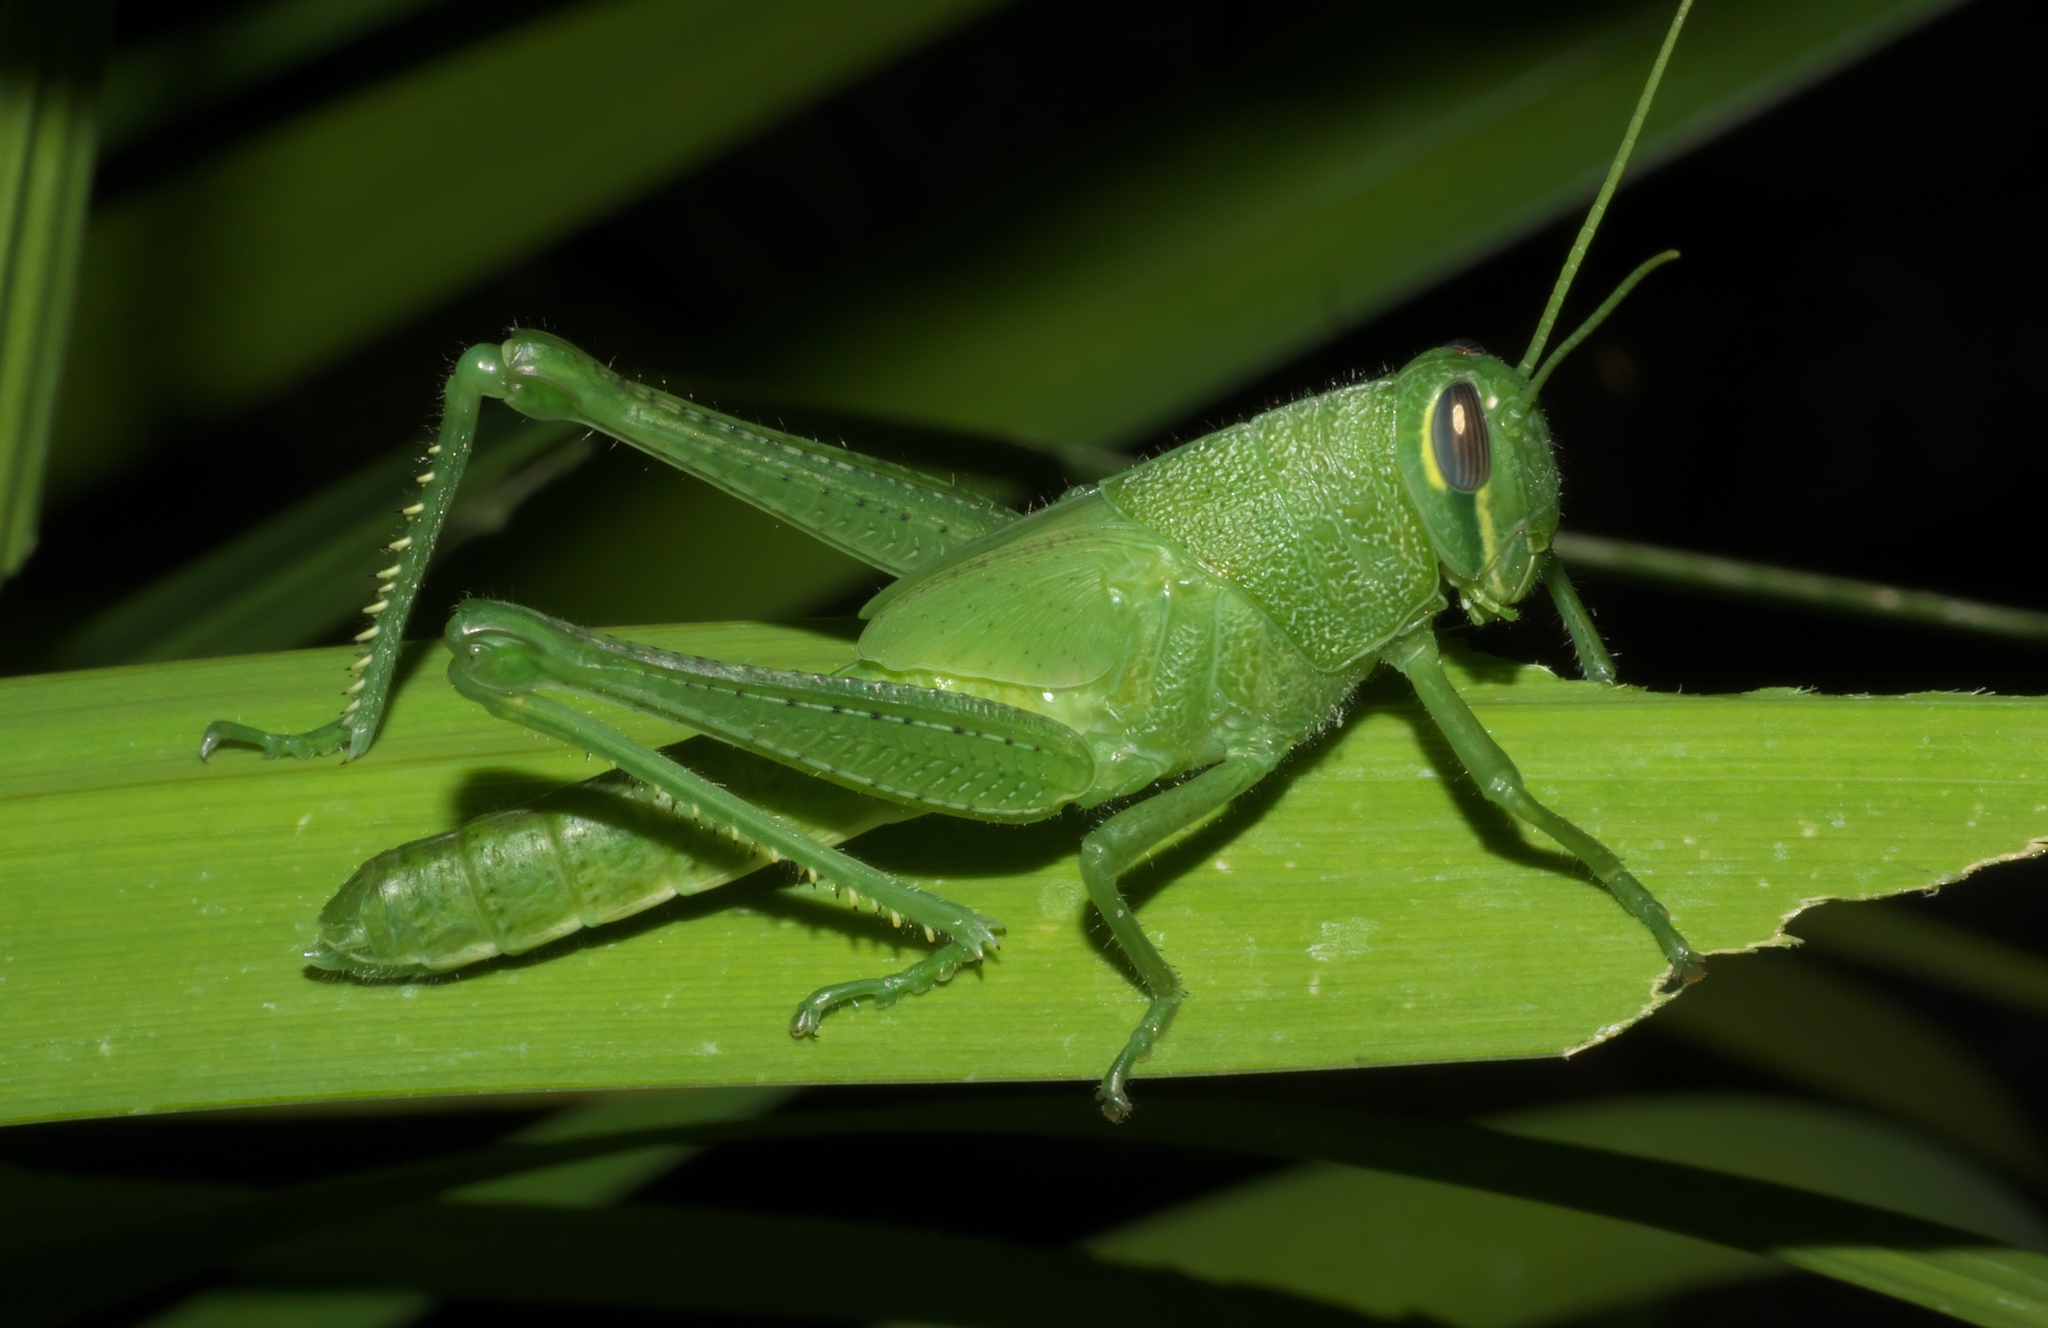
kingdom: Animalia
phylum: Arthropoda
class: Insecta
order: Orthoptera
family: Acrididae
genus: Schistocerca
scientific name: Schistocerca obscura
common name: Obscure bird grasshopper
